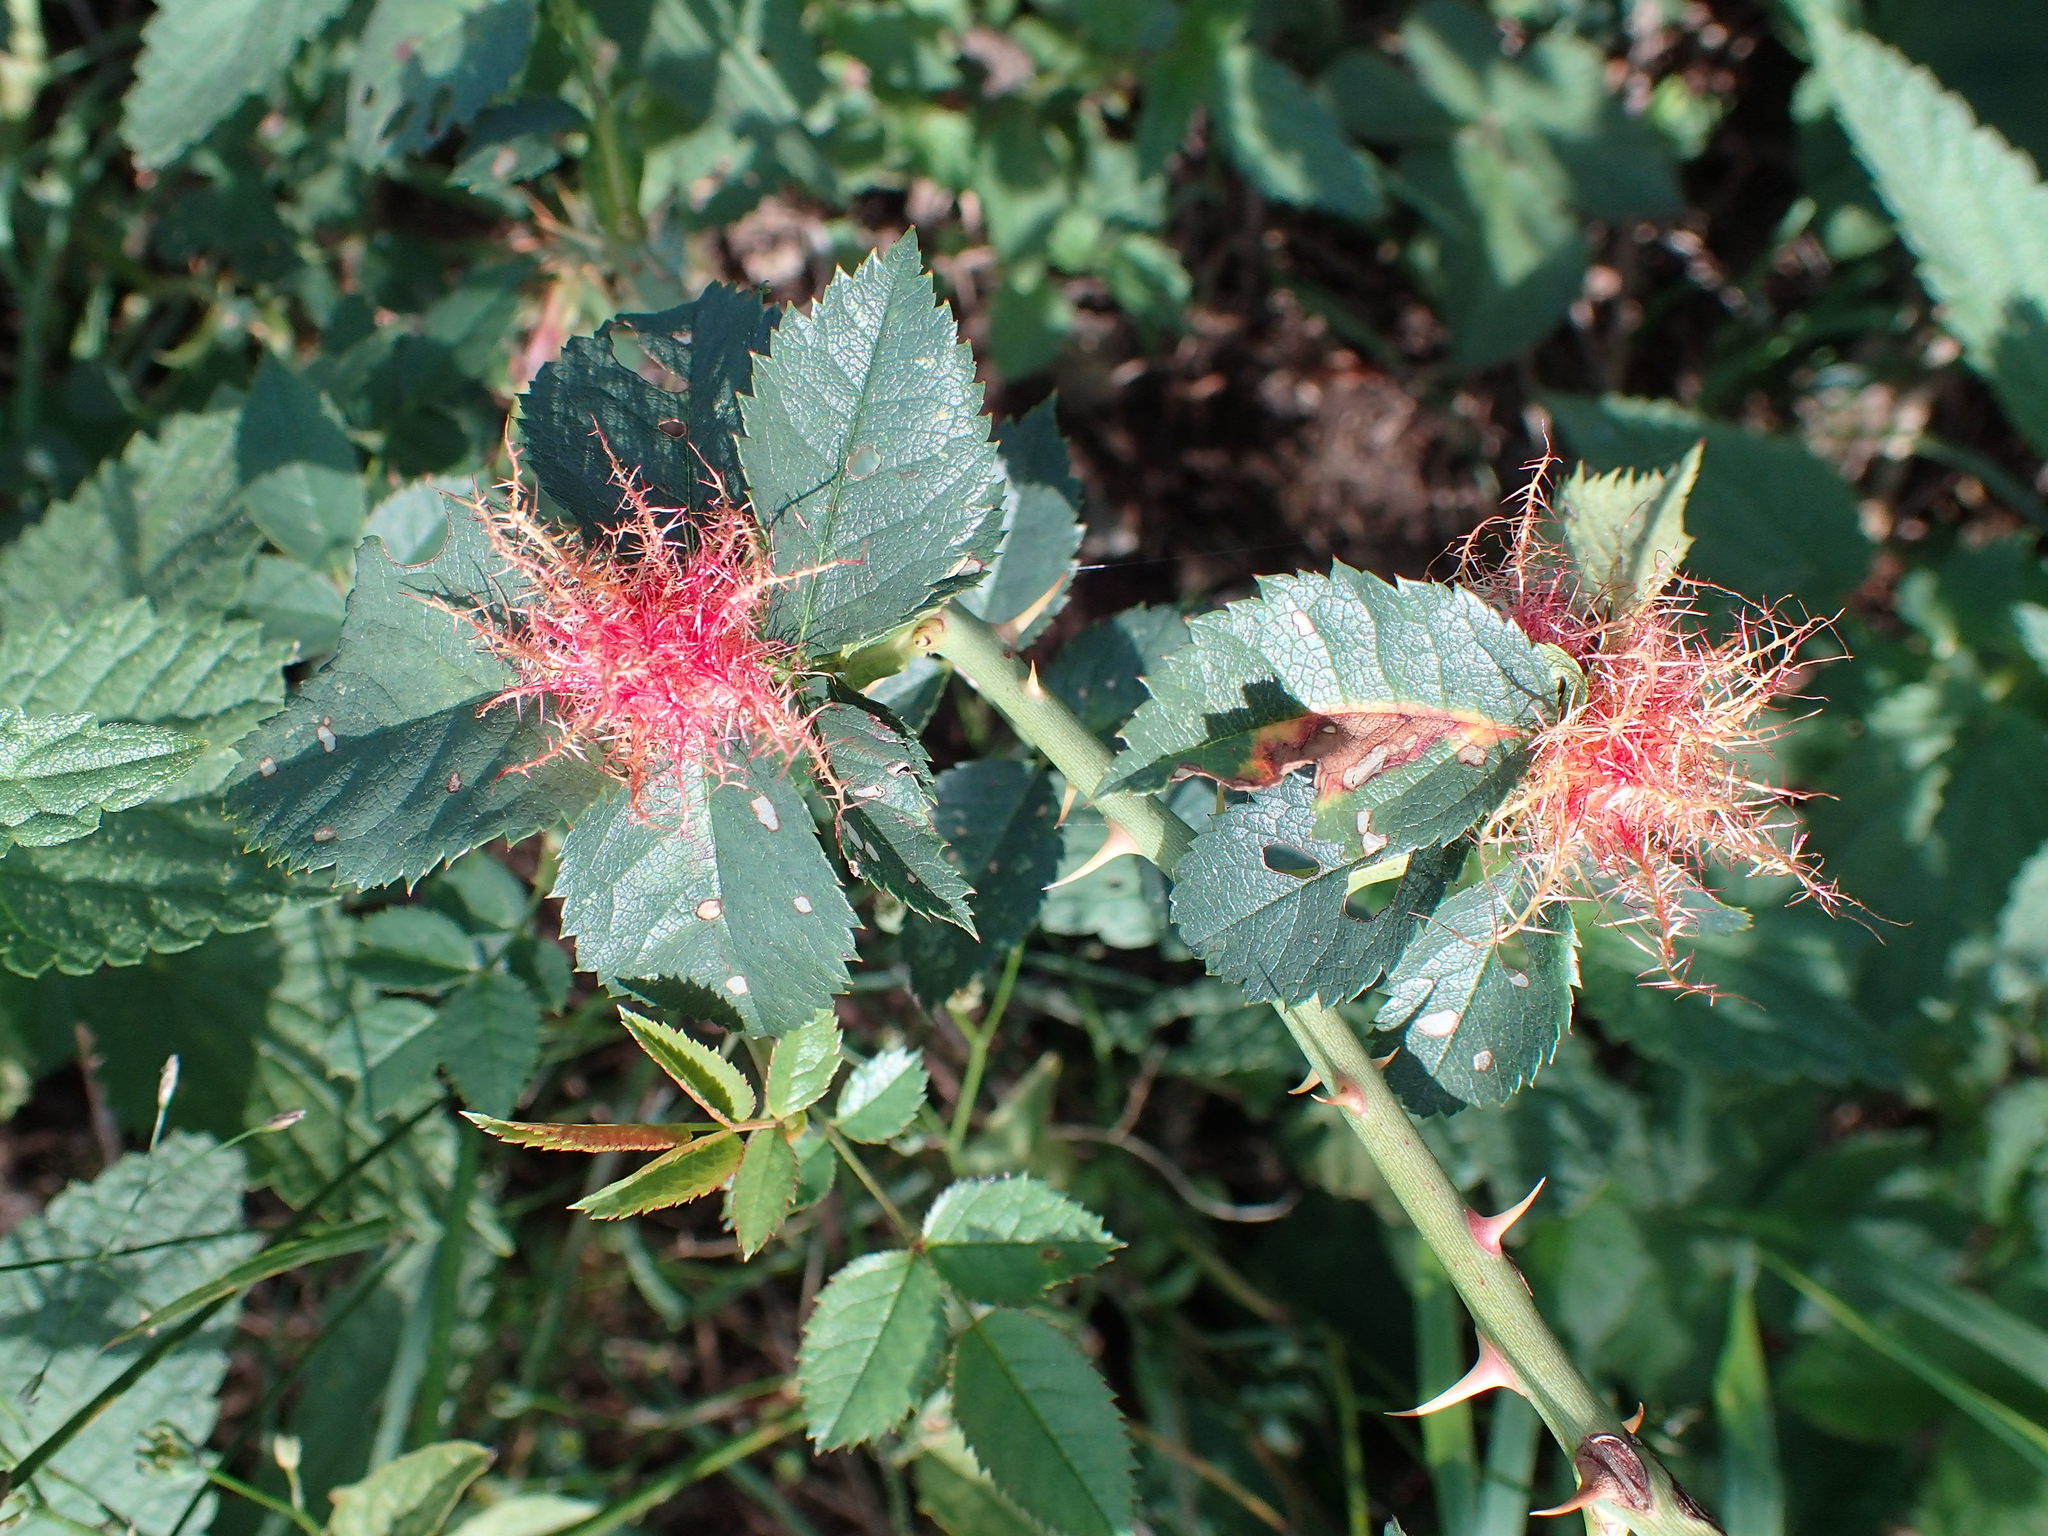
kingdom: Animalia
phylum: Arthropoda
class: Insecta
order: Hymenoptera
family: Cynipidae
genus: Diplolepis
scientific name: Diplolepis rosae
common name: Bedeguar gall
